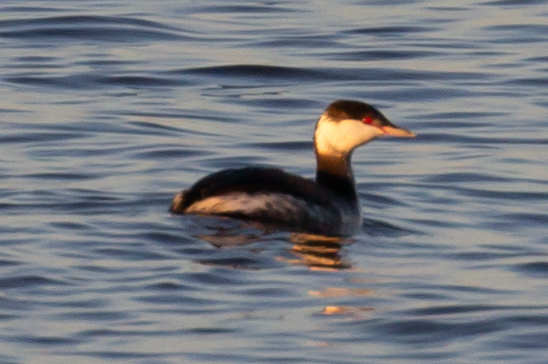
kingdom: Animalia
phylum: Chordata
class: Aves
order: Podicipediformes
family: Podicipedidae
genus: Podiceps
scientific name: Podiceps auritus
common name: Horned grebe
